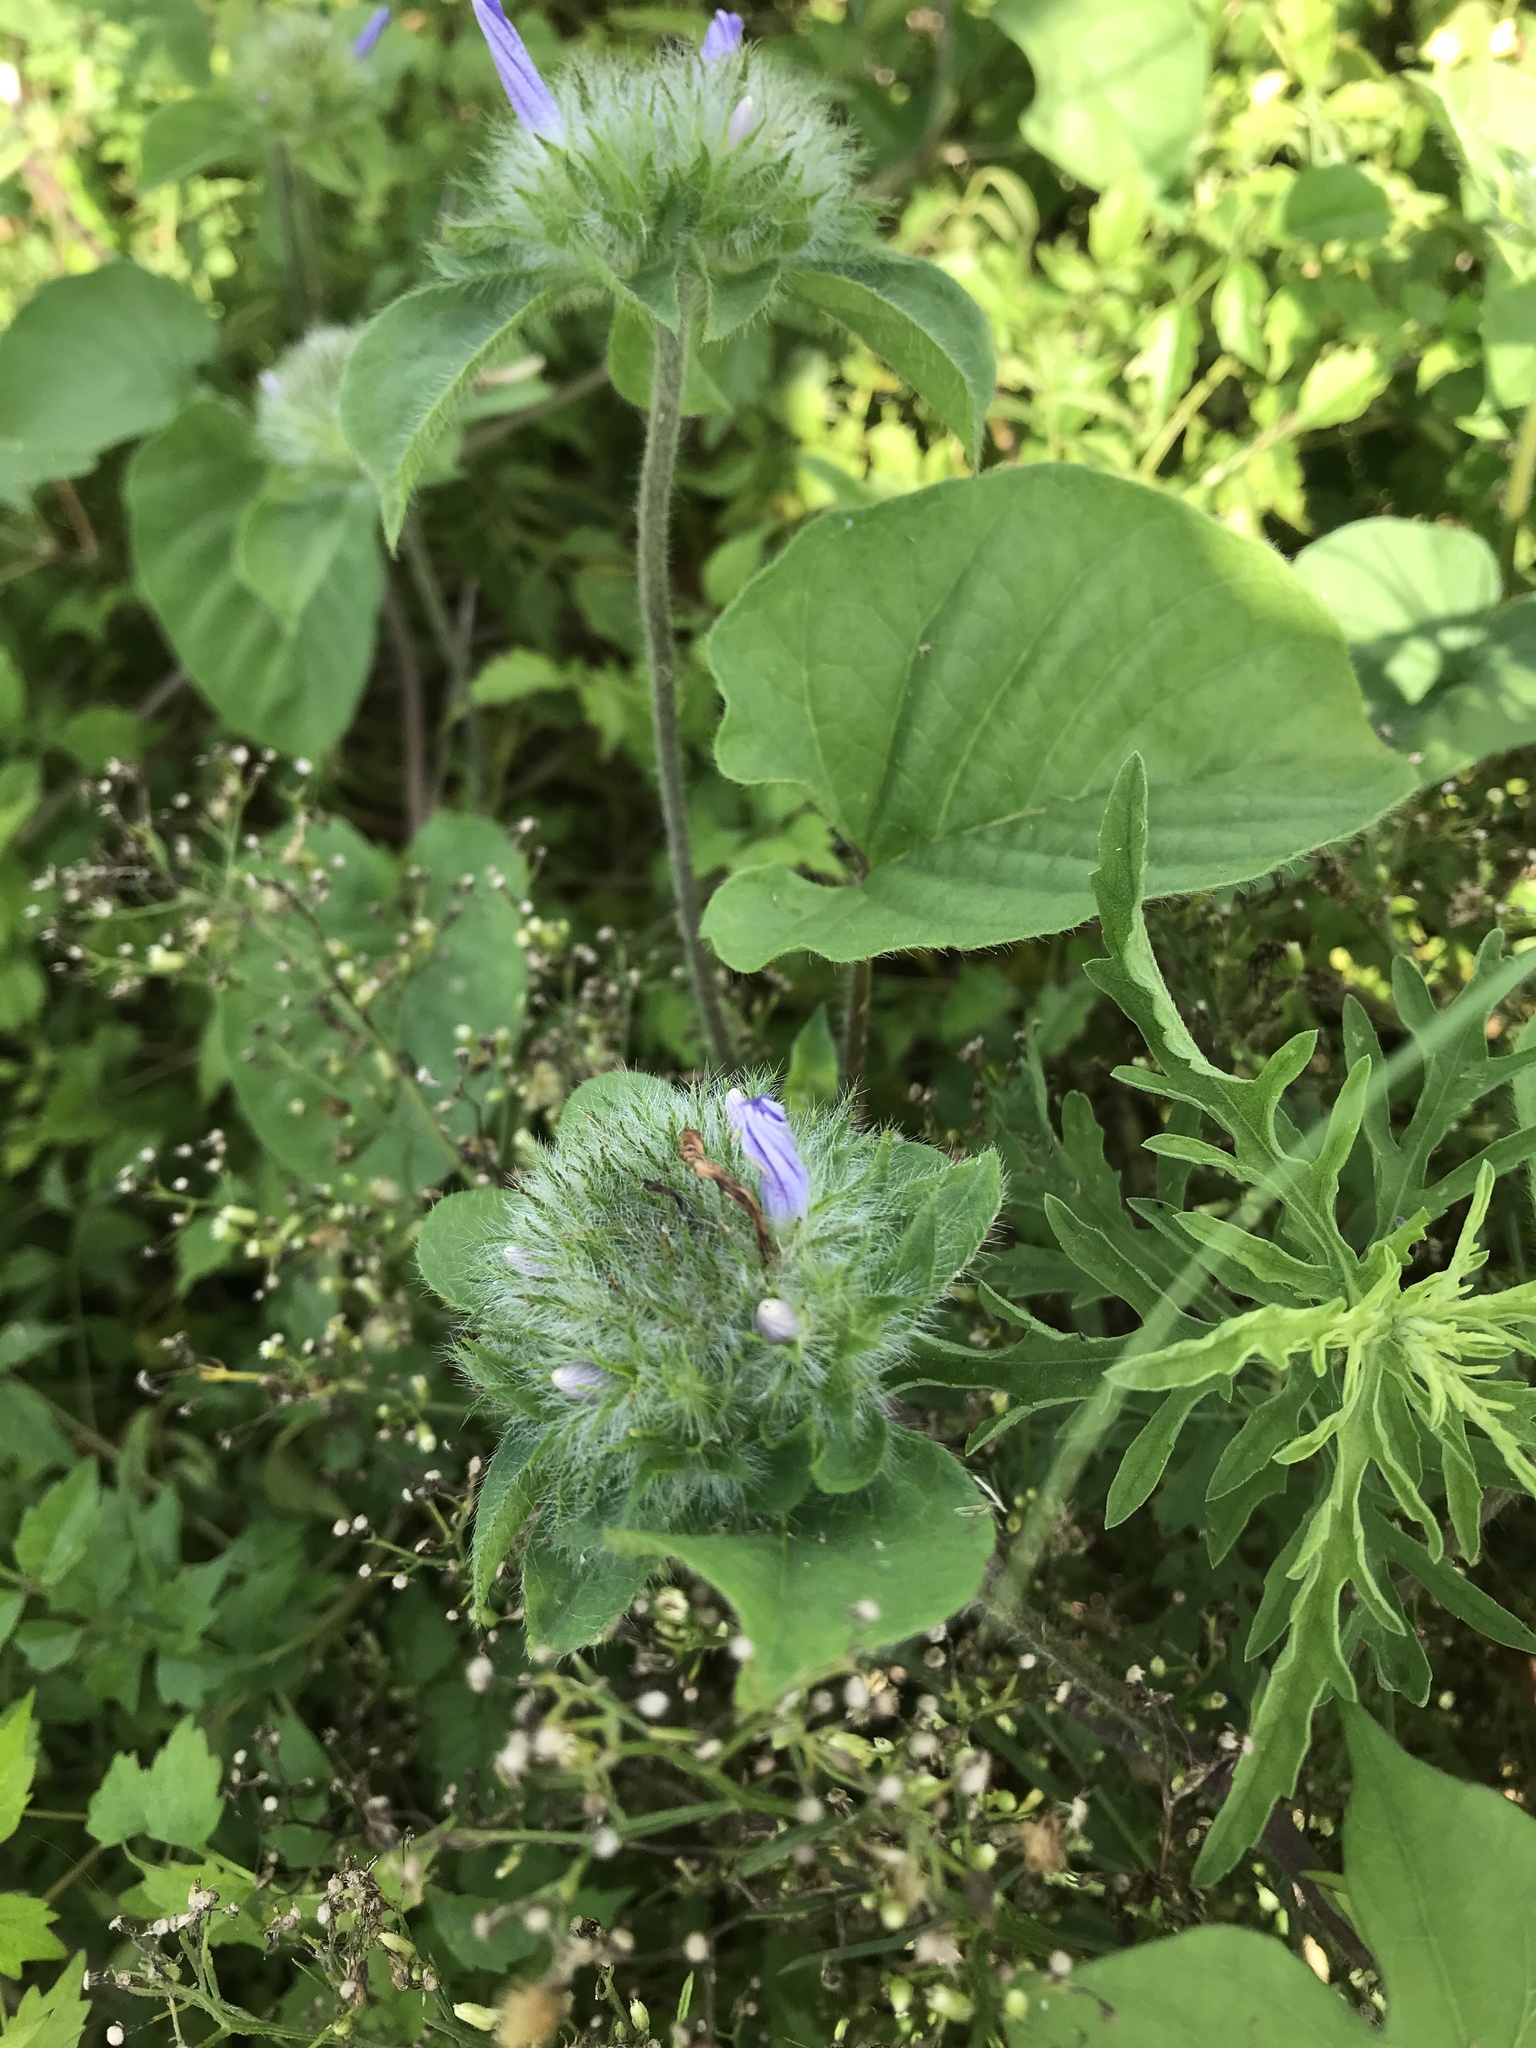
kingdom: Plantae
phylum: Tracheophyta
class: Magnoliopsida
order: Solanales
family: Convolvulaceae
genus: Jacquemontia
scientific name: Jacquemontia tamnifolia
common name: Hairy clustervine
